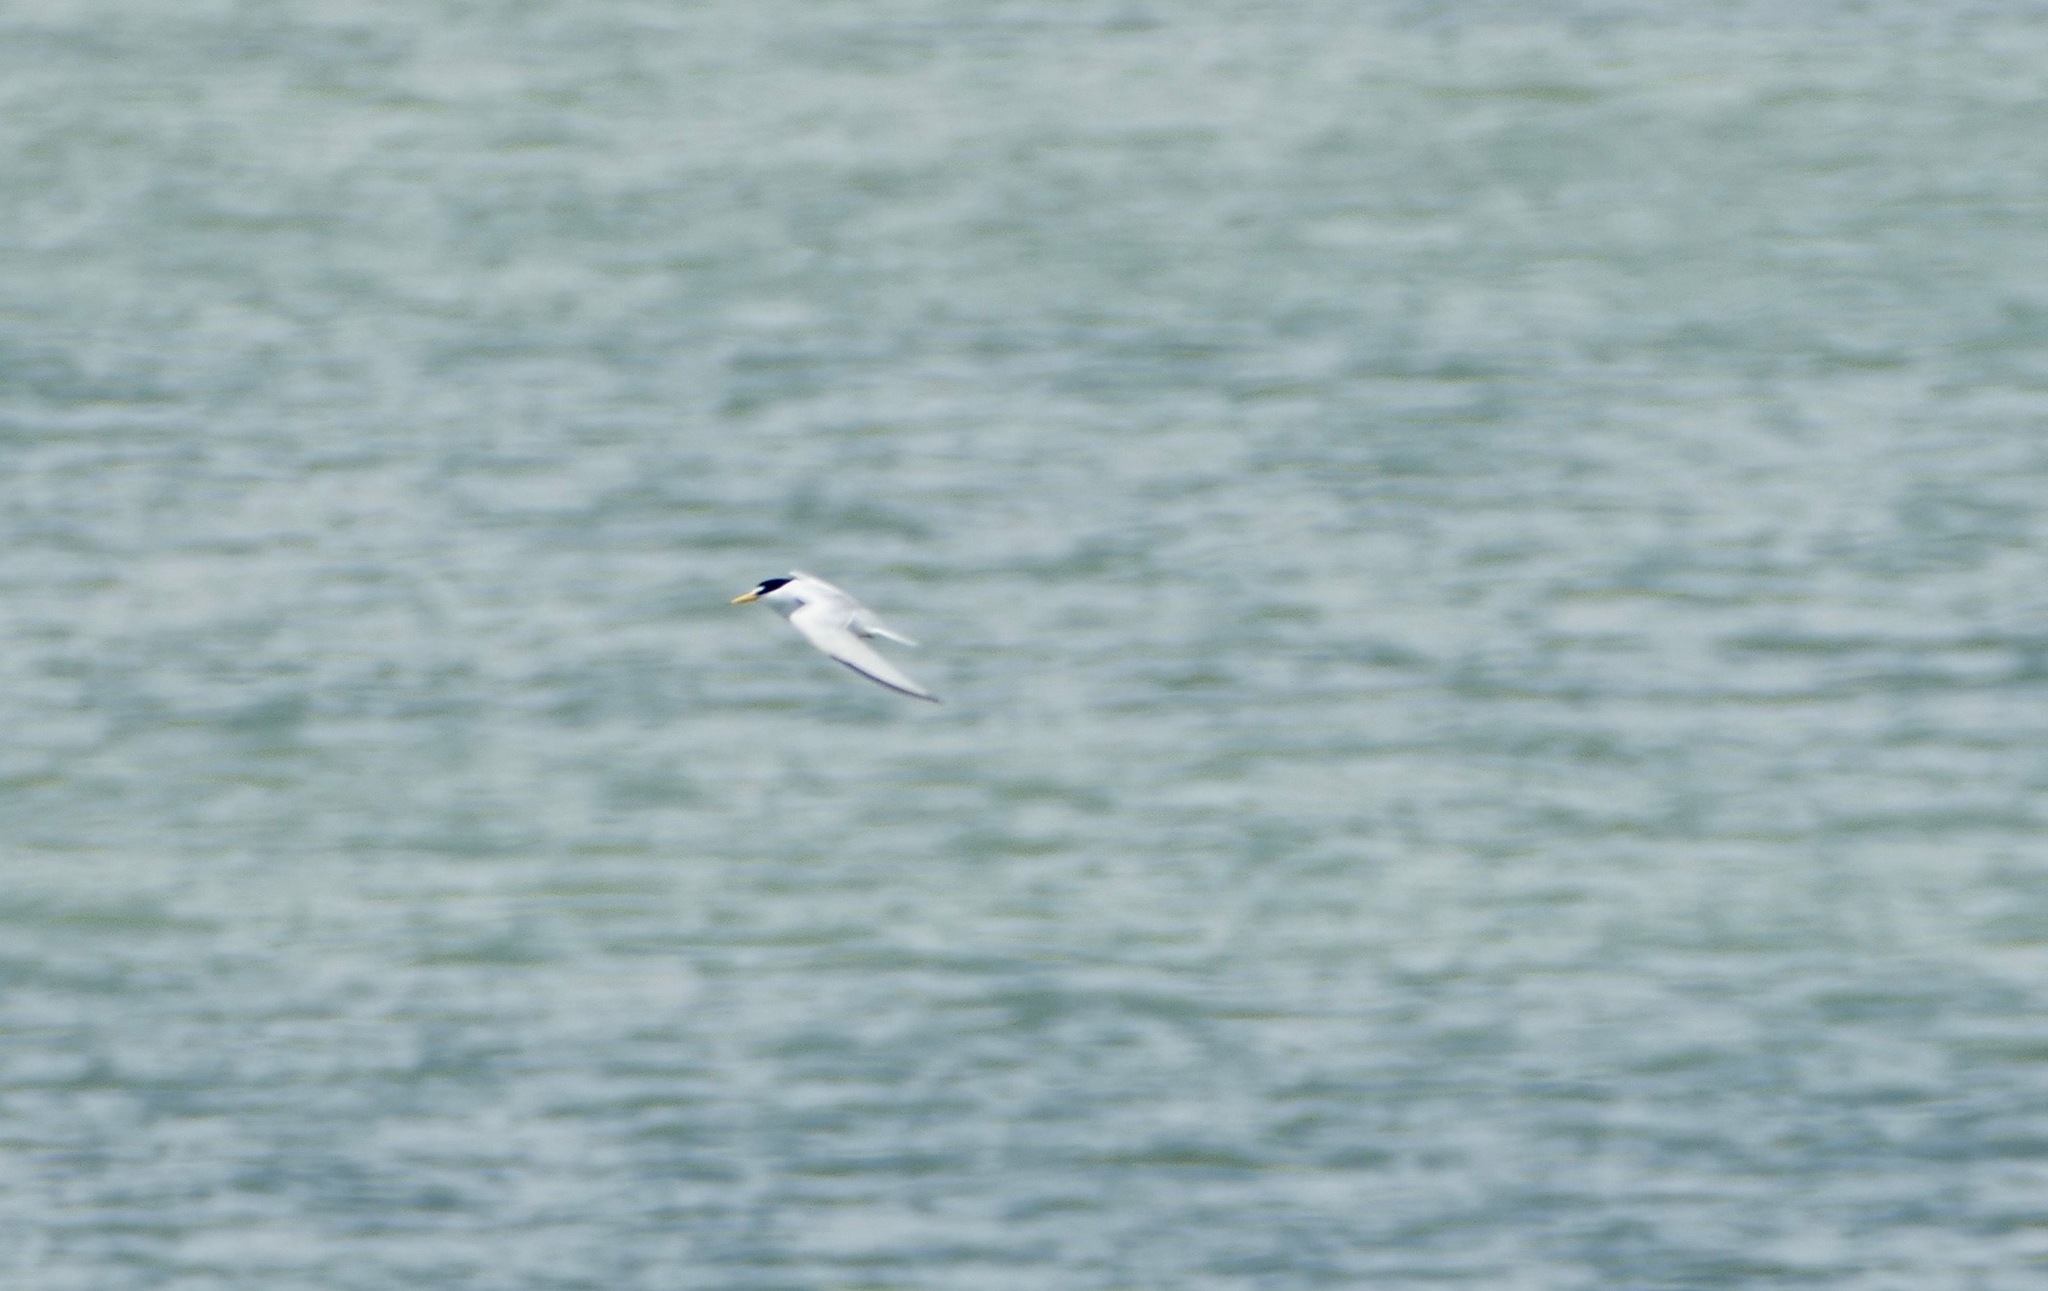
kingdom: Animalia
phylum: Chordata
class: Aves
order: Charadriiformes
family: Laridae
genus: Sternula
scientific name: Sternula antillarum
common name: Least tern
